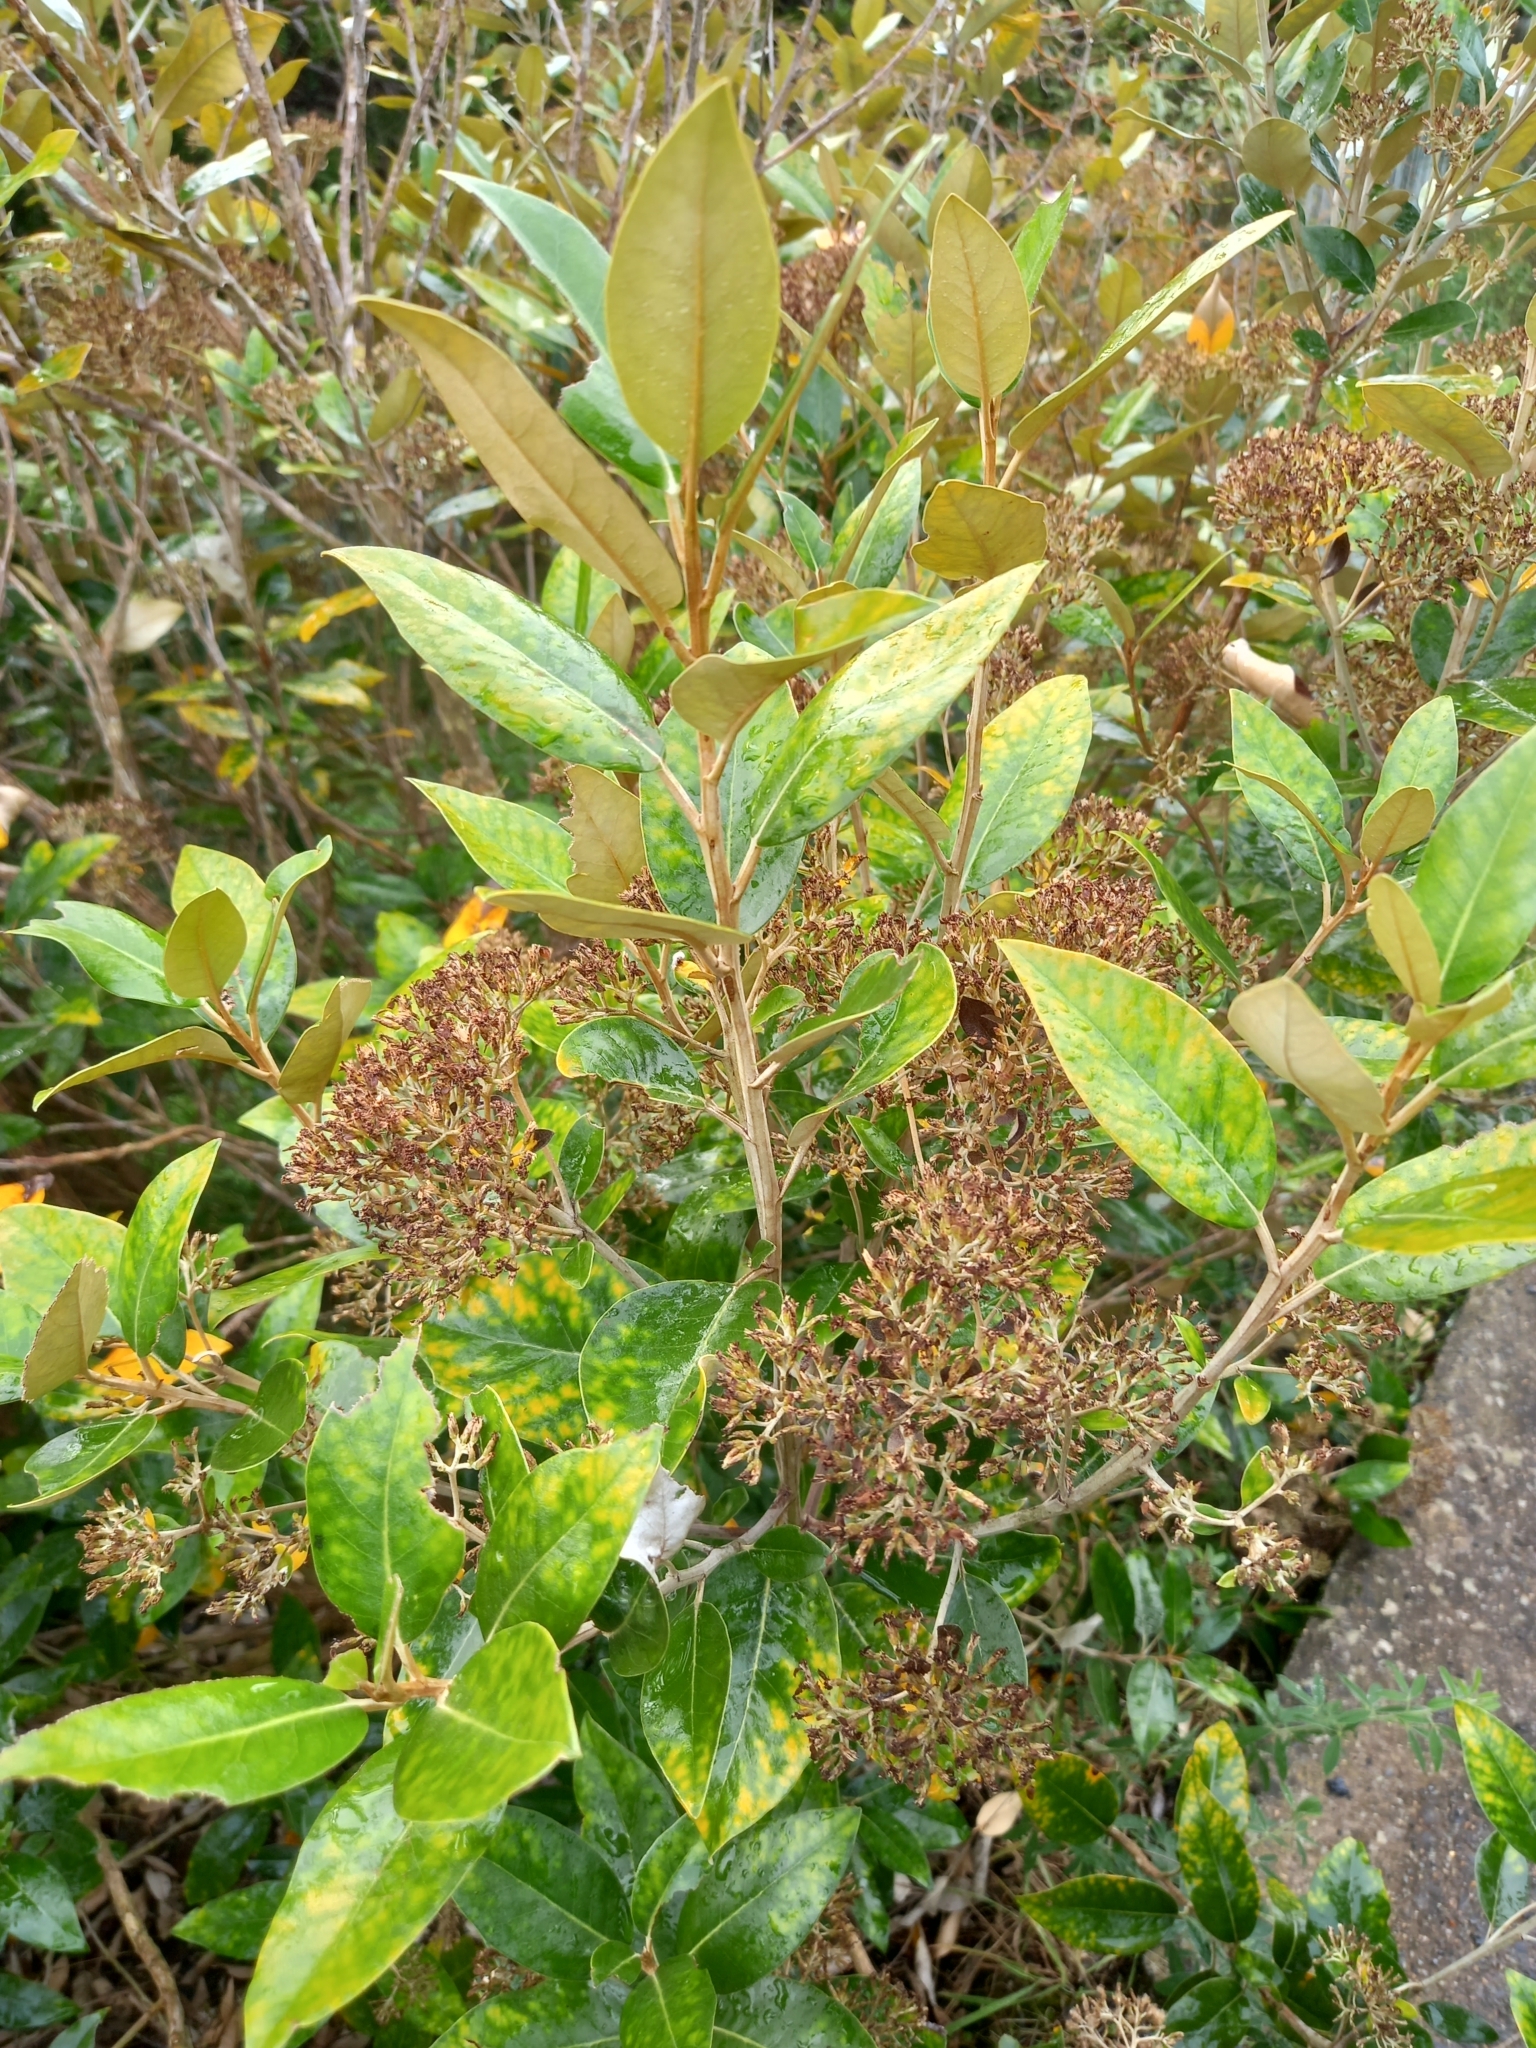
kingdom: Plantae
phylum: Tracheophyta
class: Magnoliopsida
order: Asterales
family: Asteraceae
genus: Olearia
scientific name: Olearia avicenniifolia
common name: Mangrove-leaf daisybush
